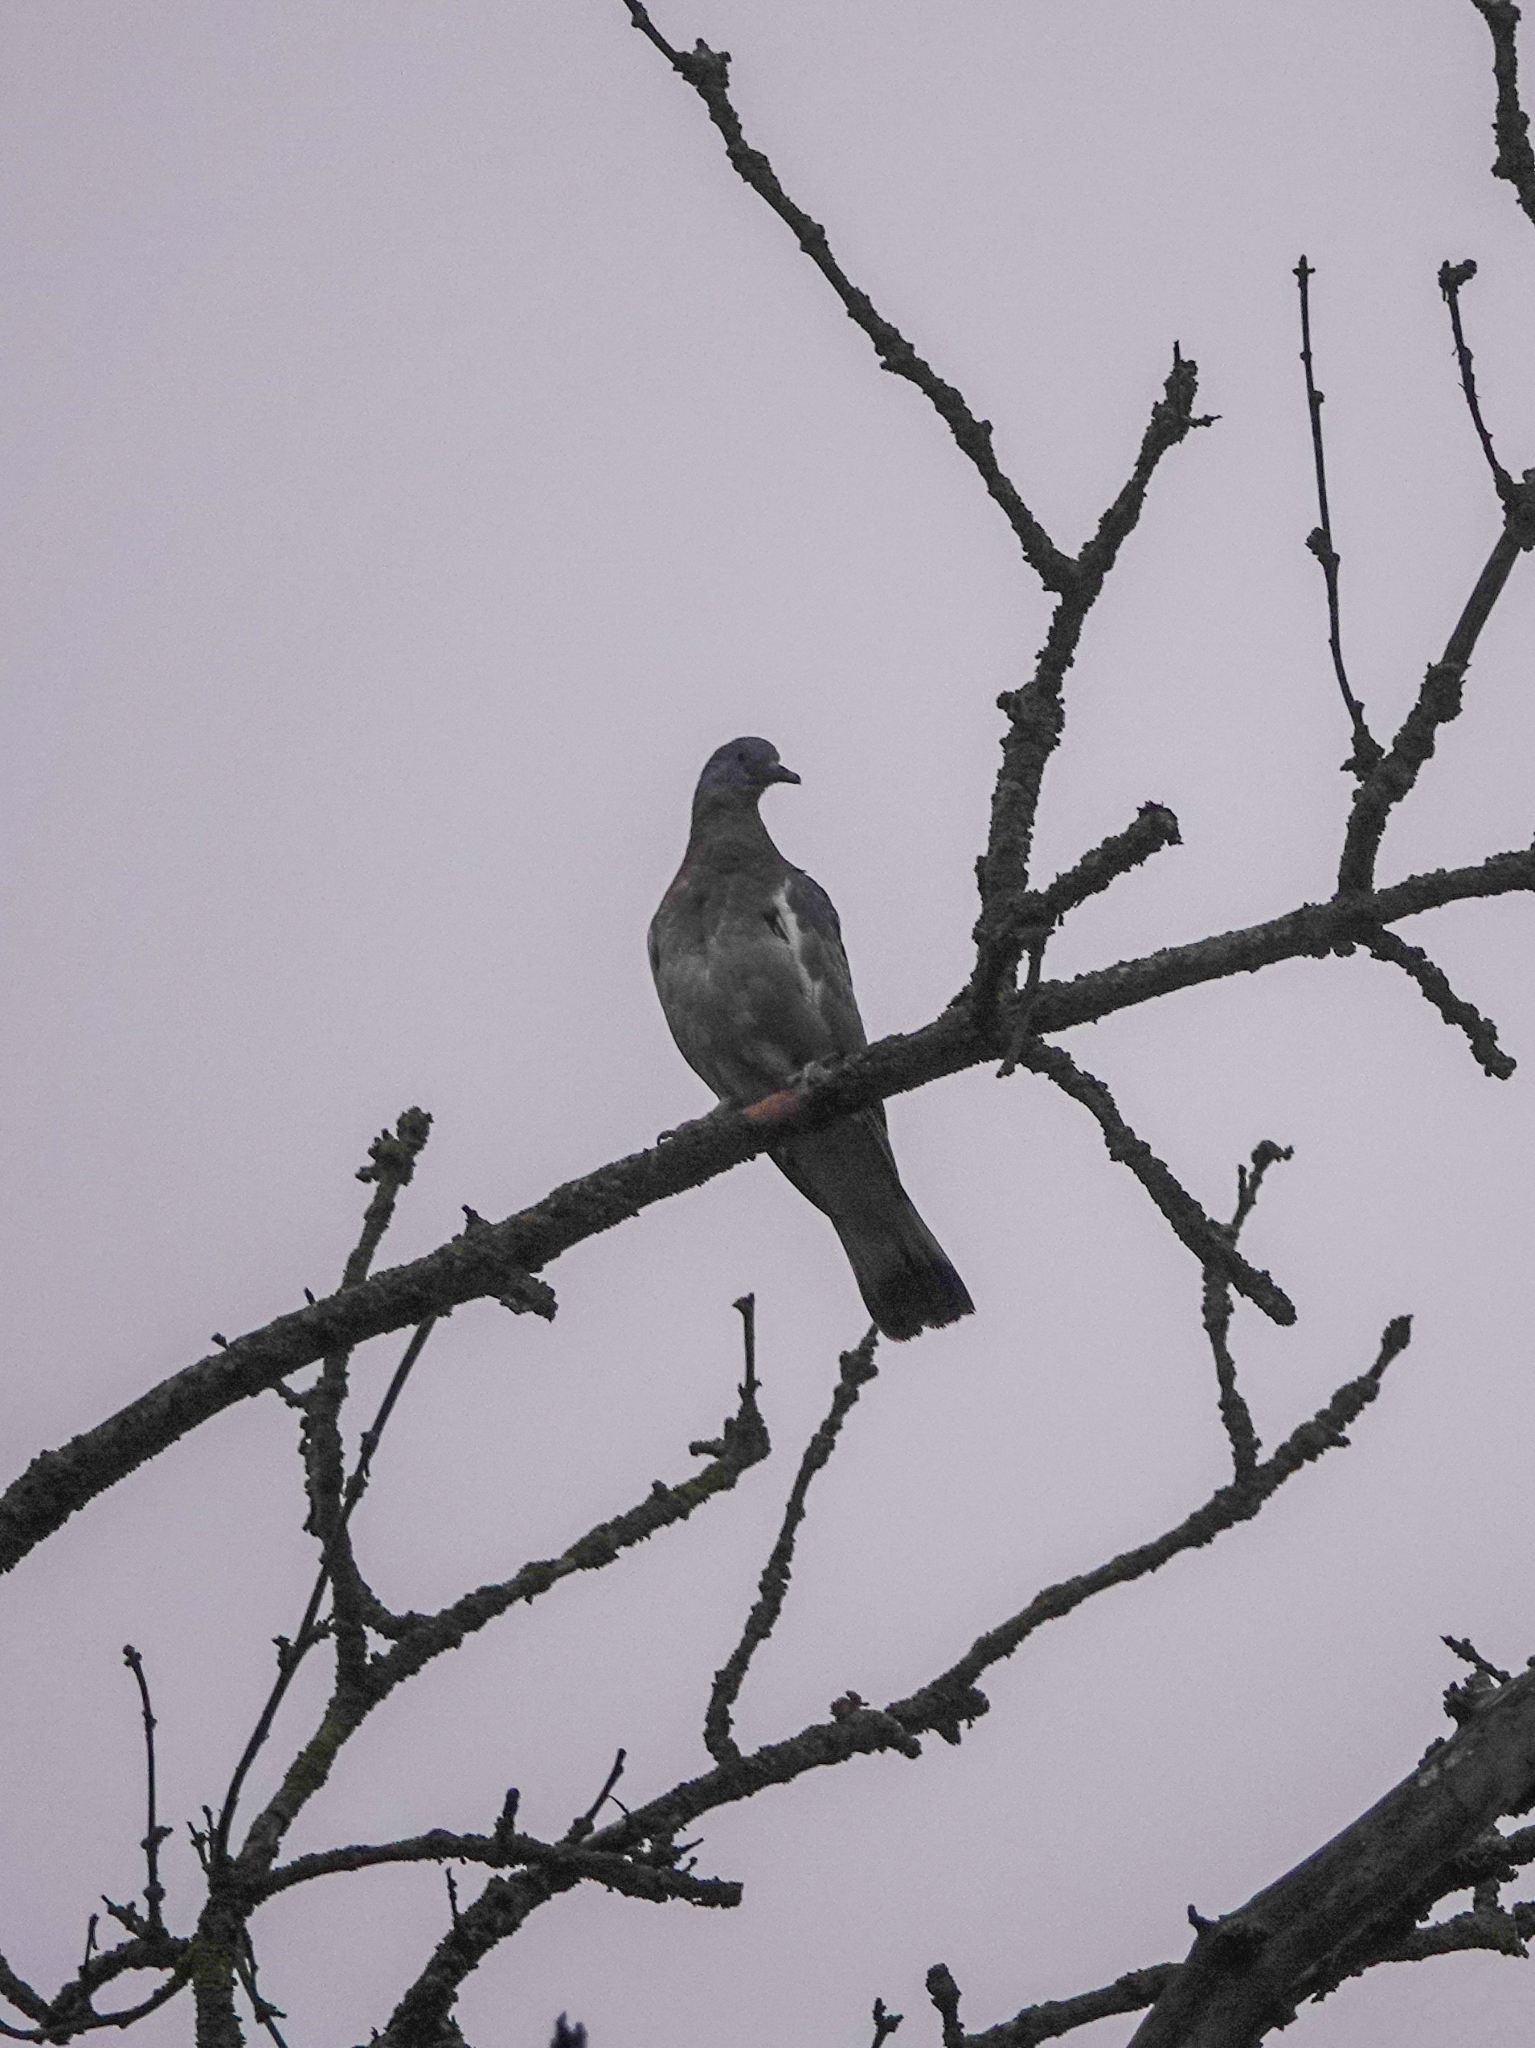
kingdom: Animalia
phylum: Chordata
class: Aves
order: Columbiformes
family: Columbidae
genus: Columba
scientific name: Columba palumbus
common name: Common wood pigeon
